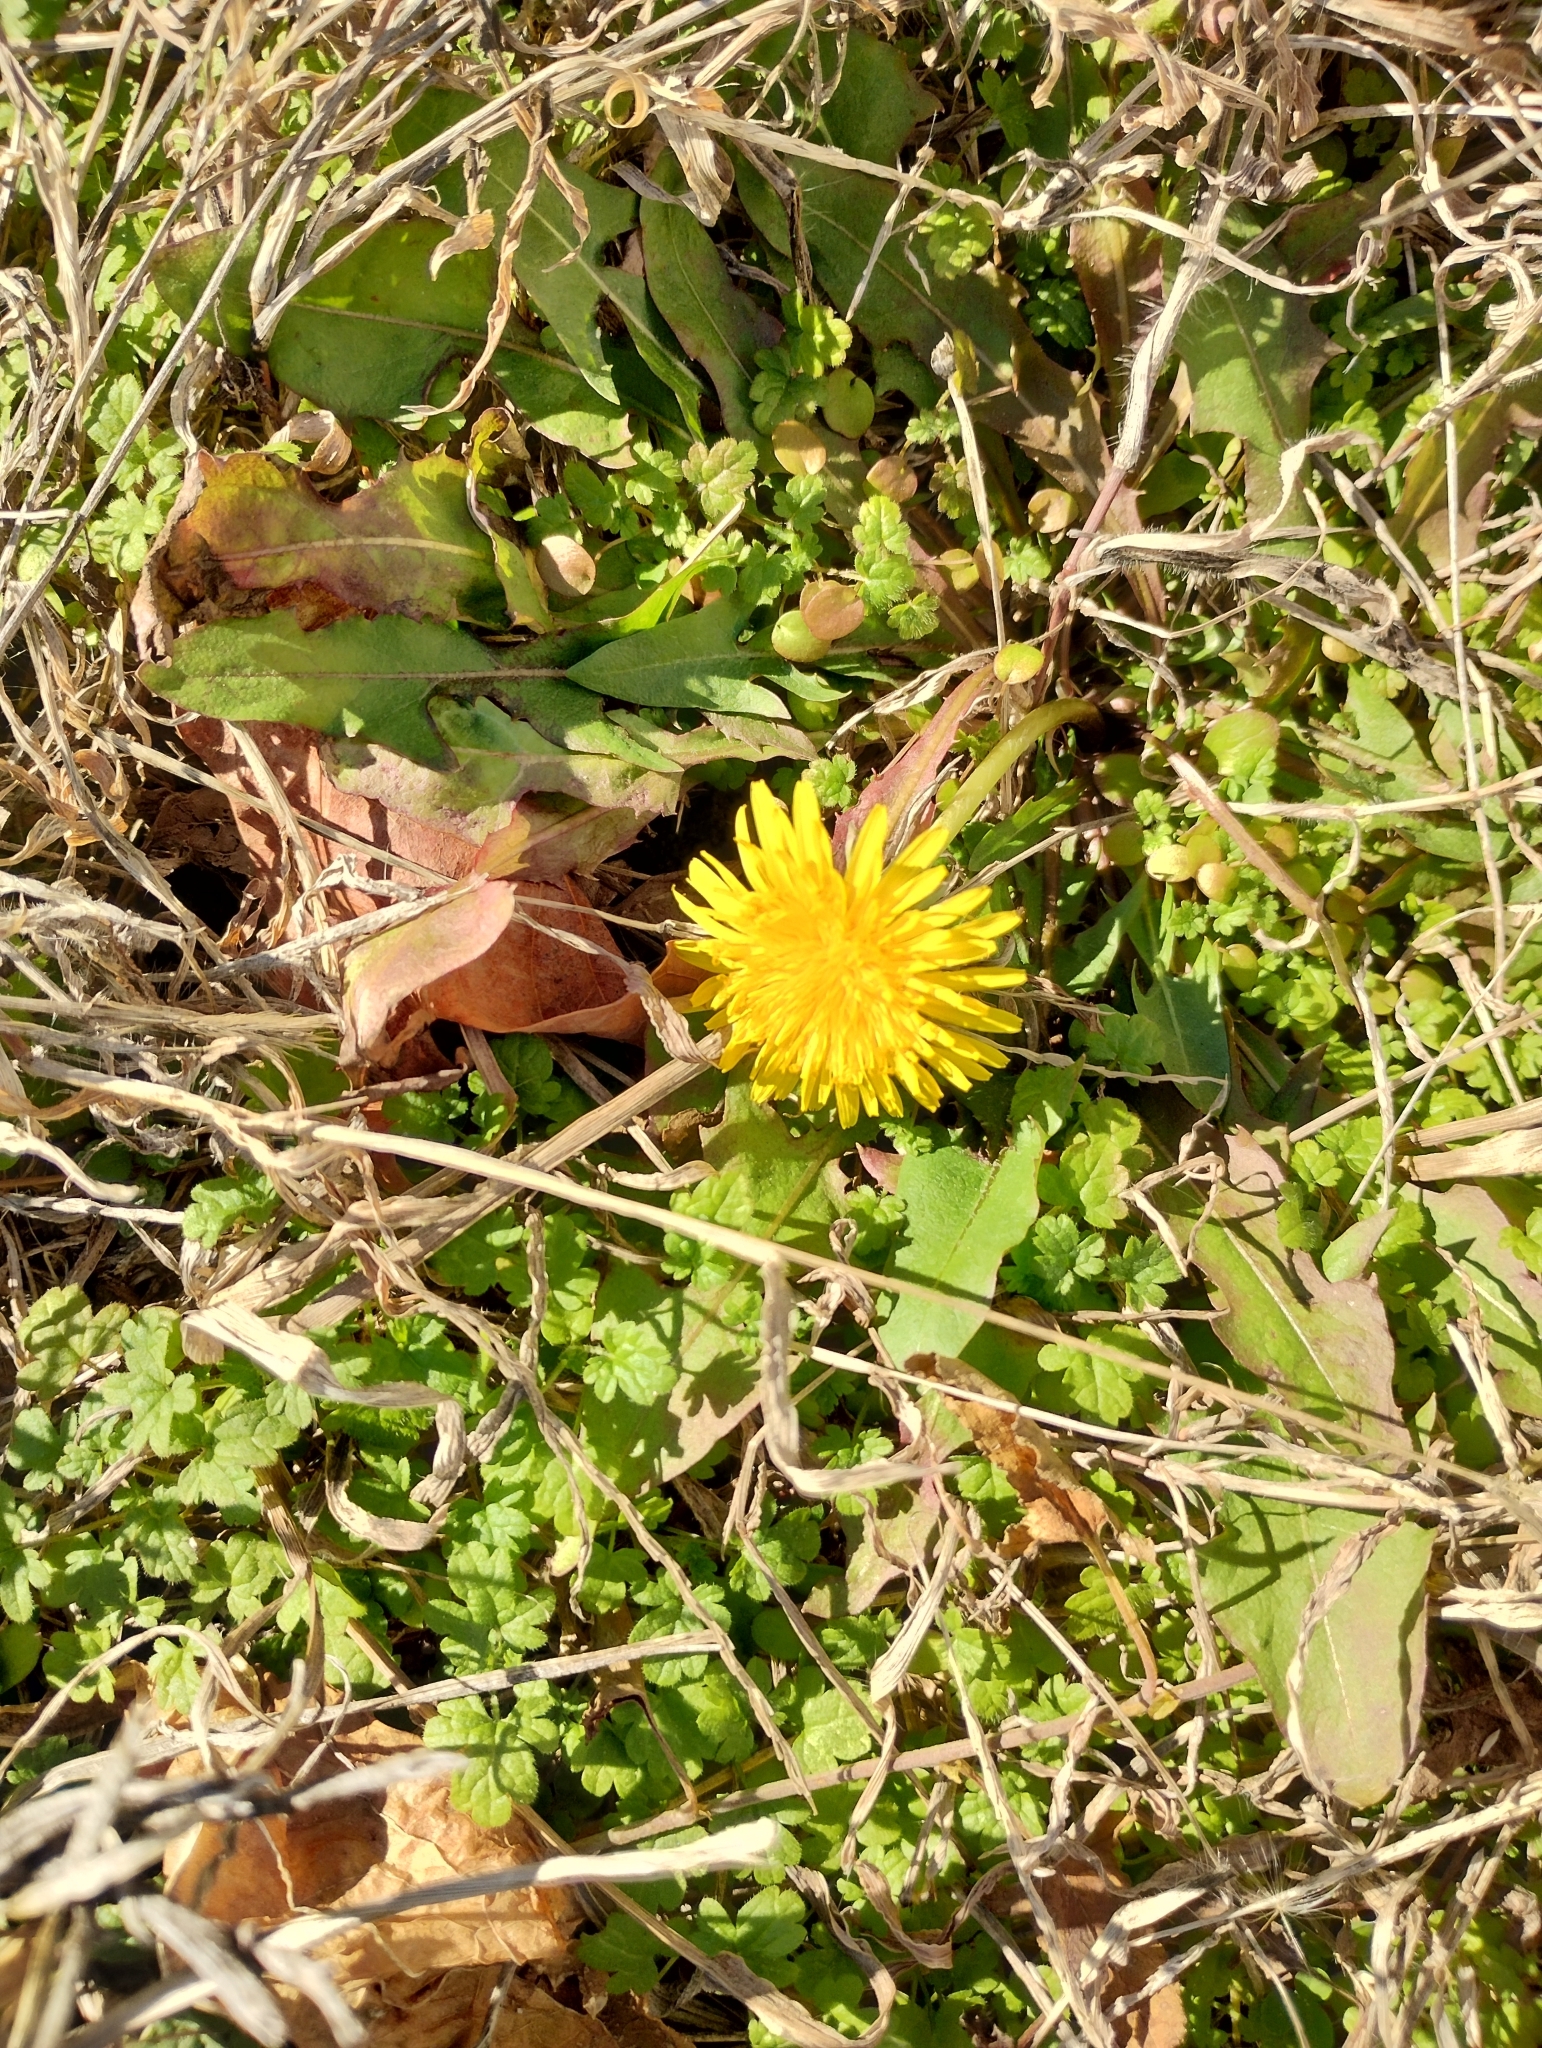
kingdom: Plantae
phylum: Tracheophyta
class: Magnoliopsida
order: Asterales
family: Asteraceae
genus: Taraxacum
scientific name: Taraxacum
